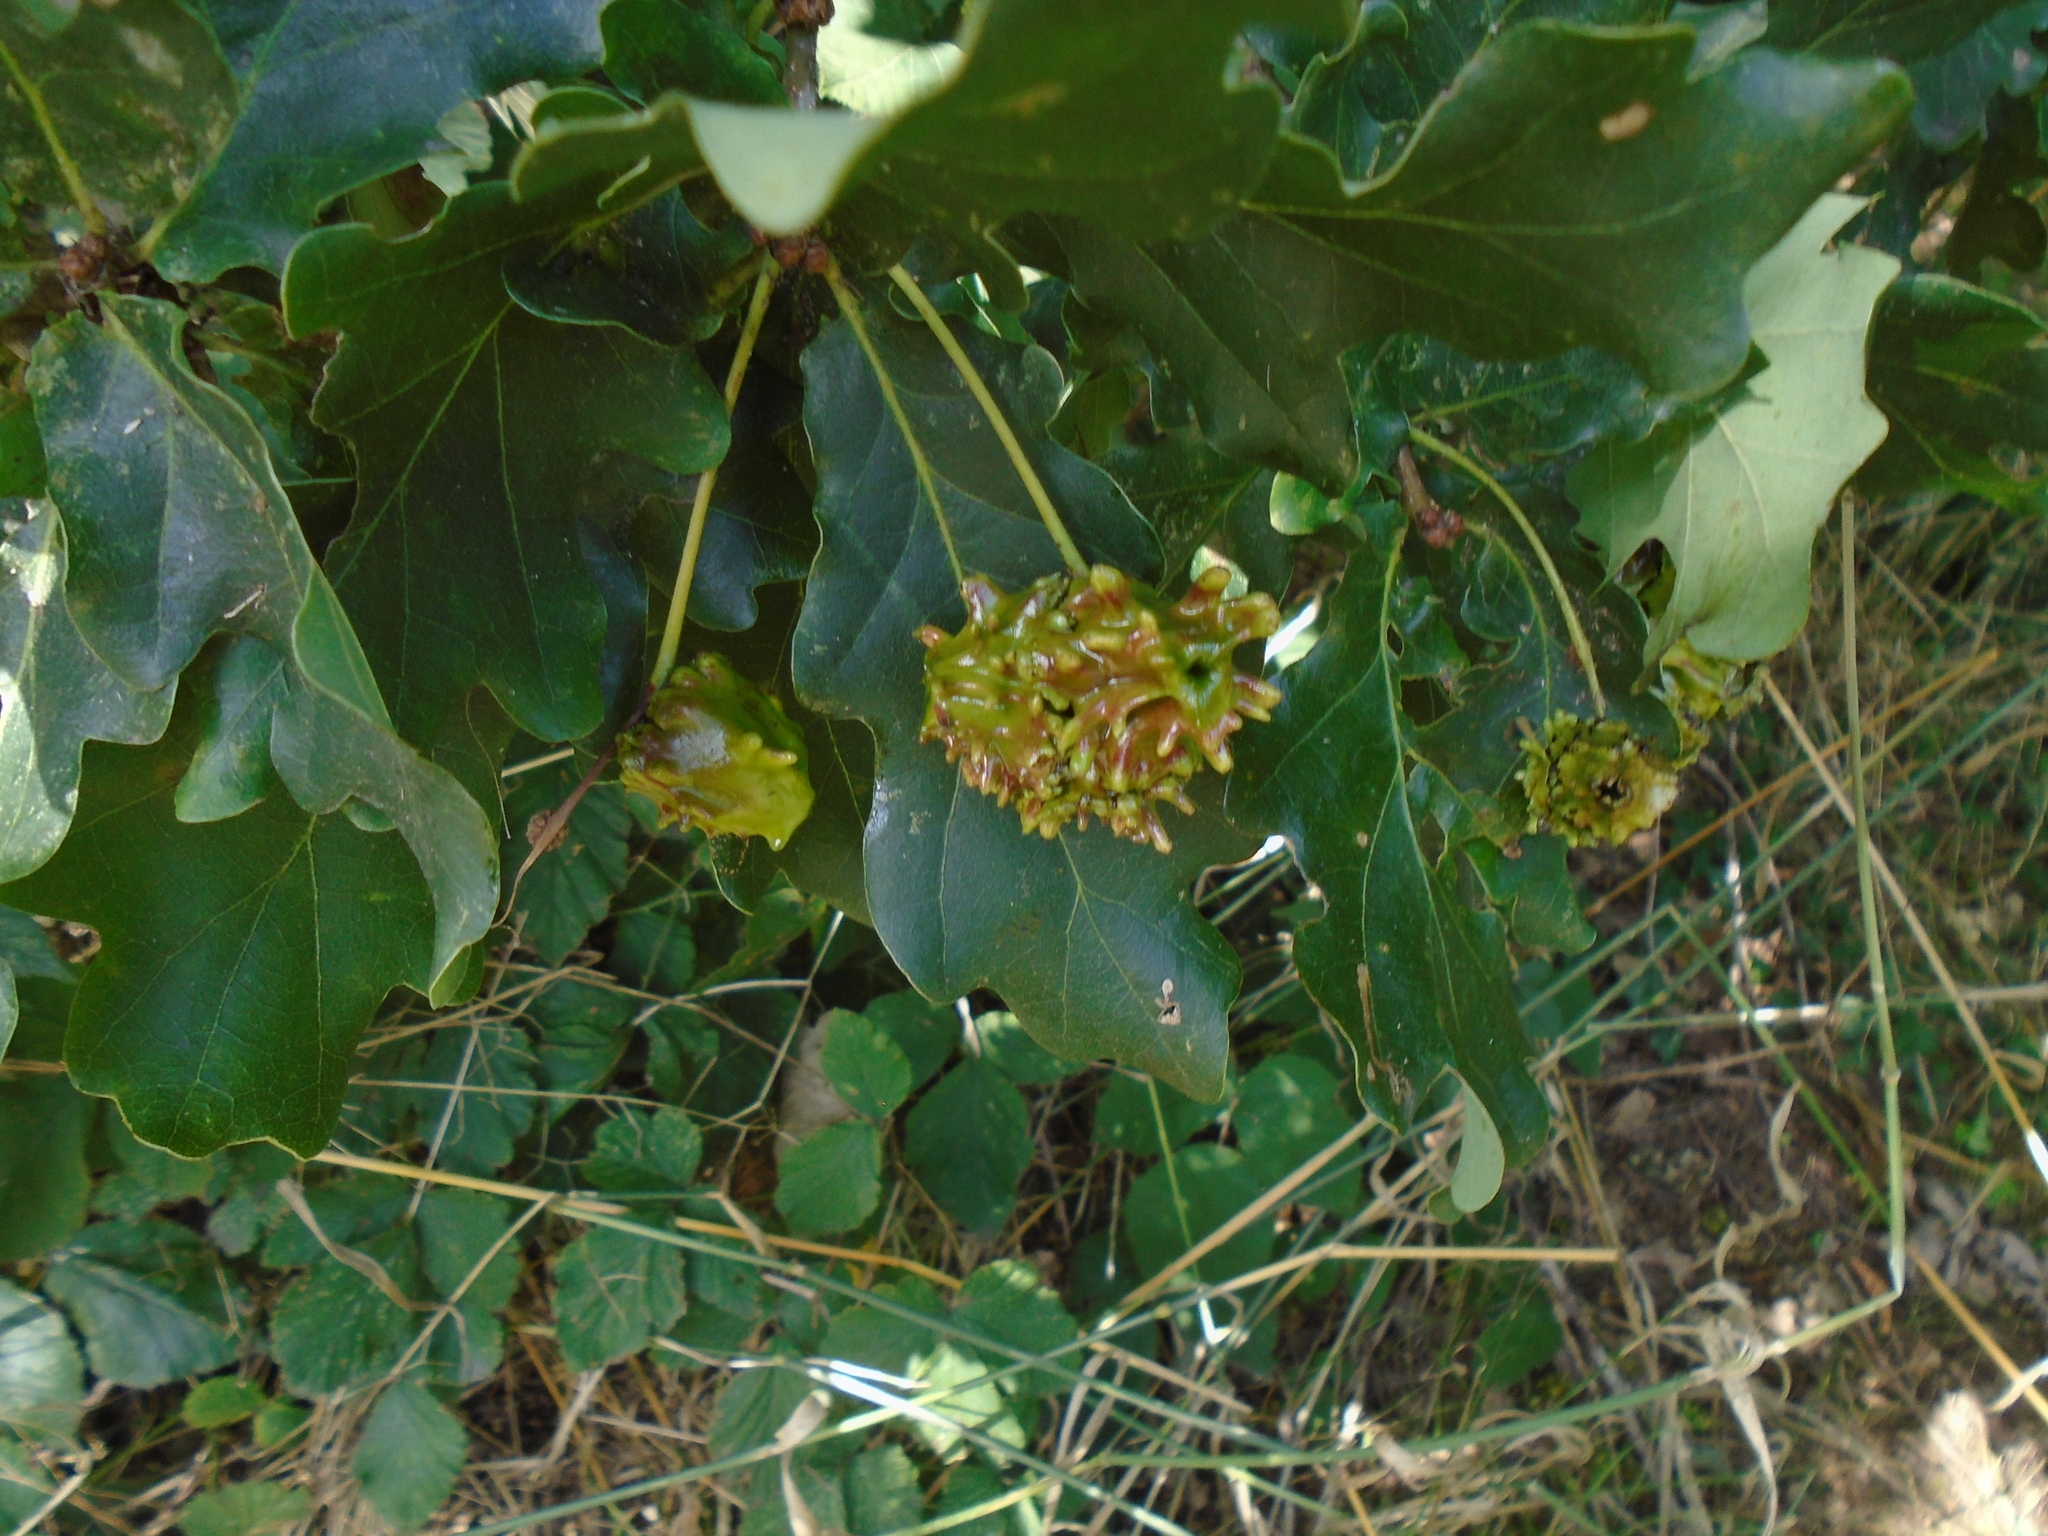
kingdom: Animalia
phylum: Arthropoda
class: Insecta
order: Hymenoptera
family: Cynipidae
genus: Andricus
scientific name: Andricus quercuscalicis
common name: Knopper gall
